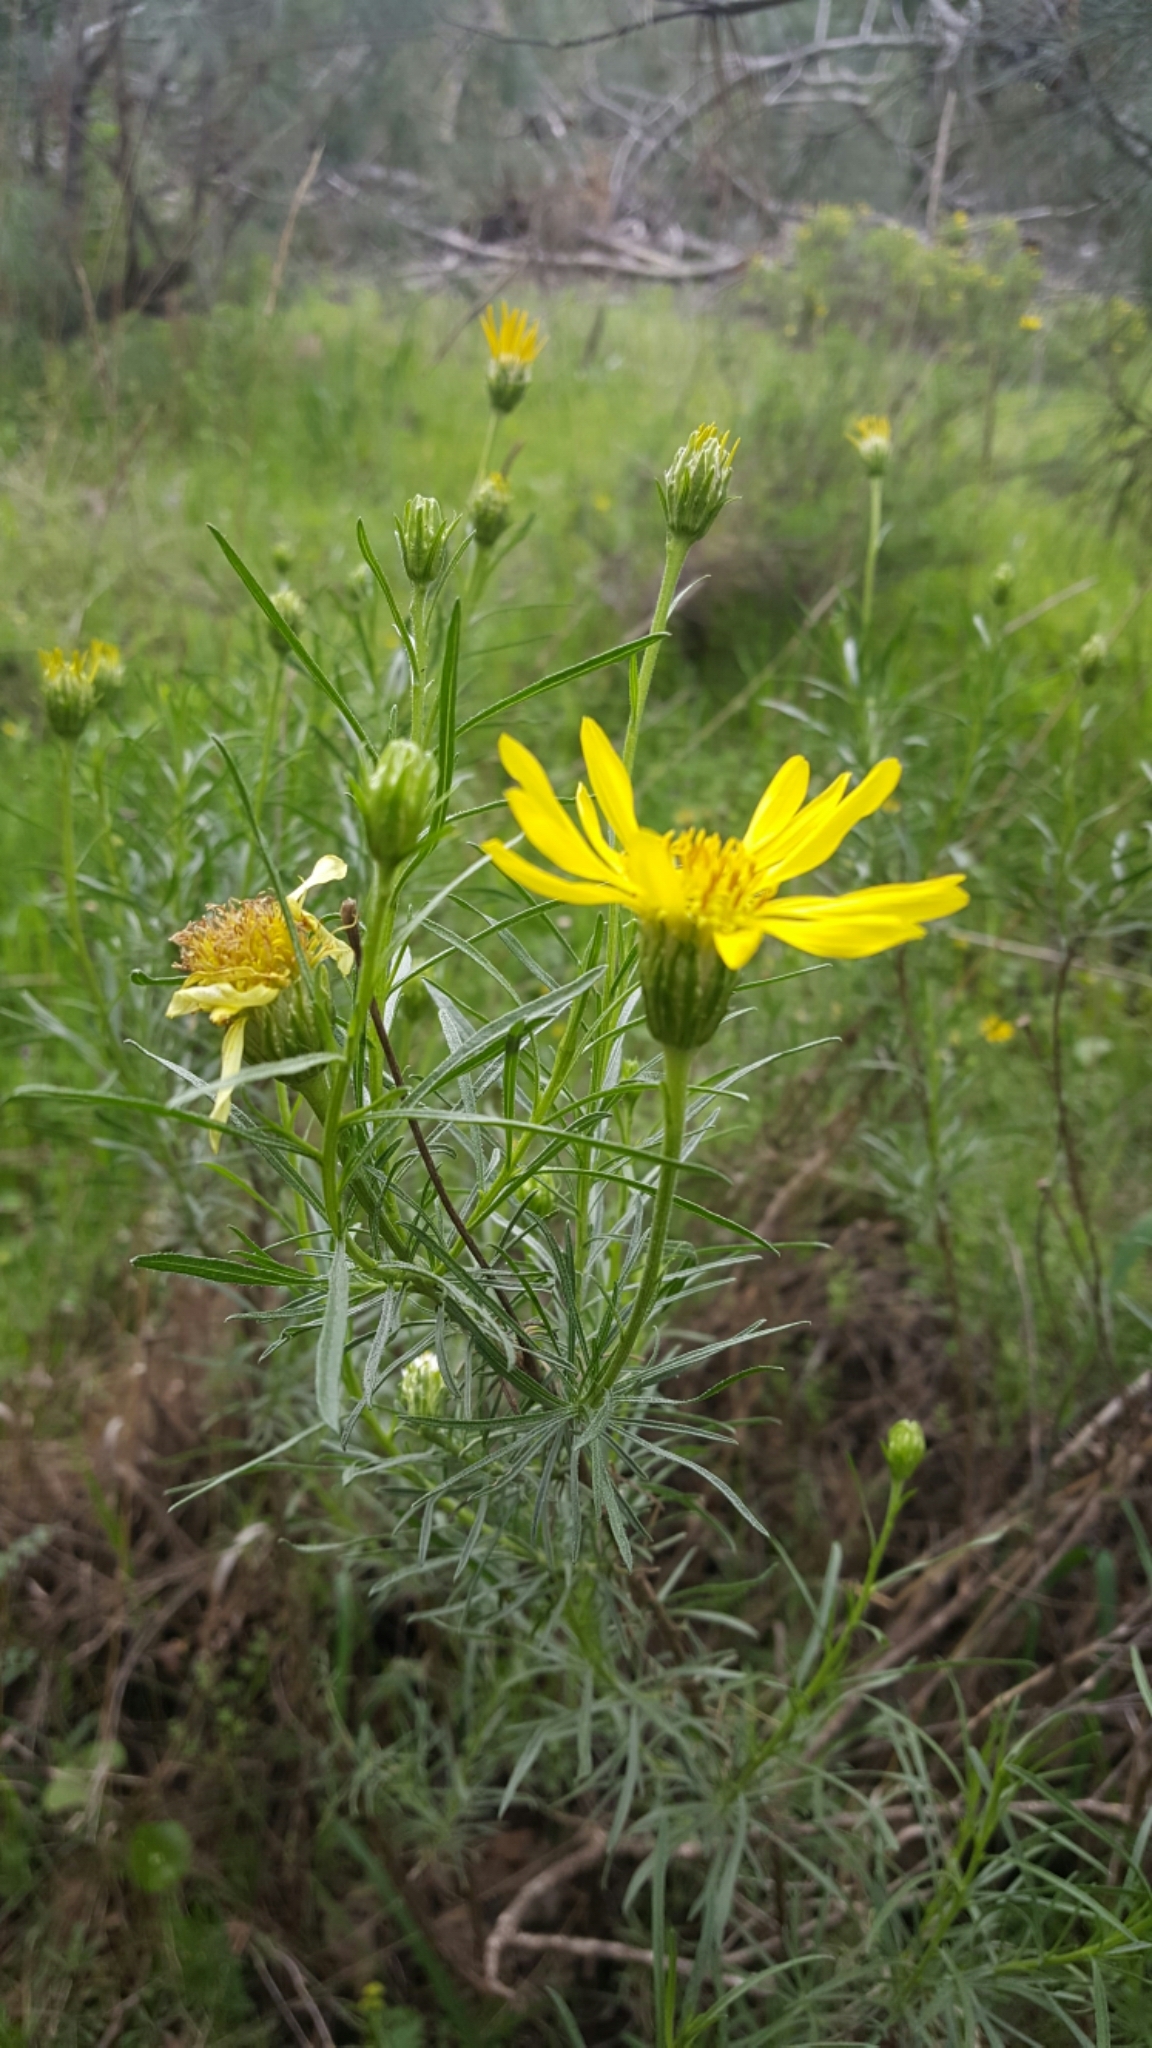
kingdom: Plantae
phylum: Tracheophyta
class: Magnoliopsida
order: Asterales
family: Asteraceae
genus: Ericameria
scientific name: Ericameria linearifolia
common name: Interior goldenbush
